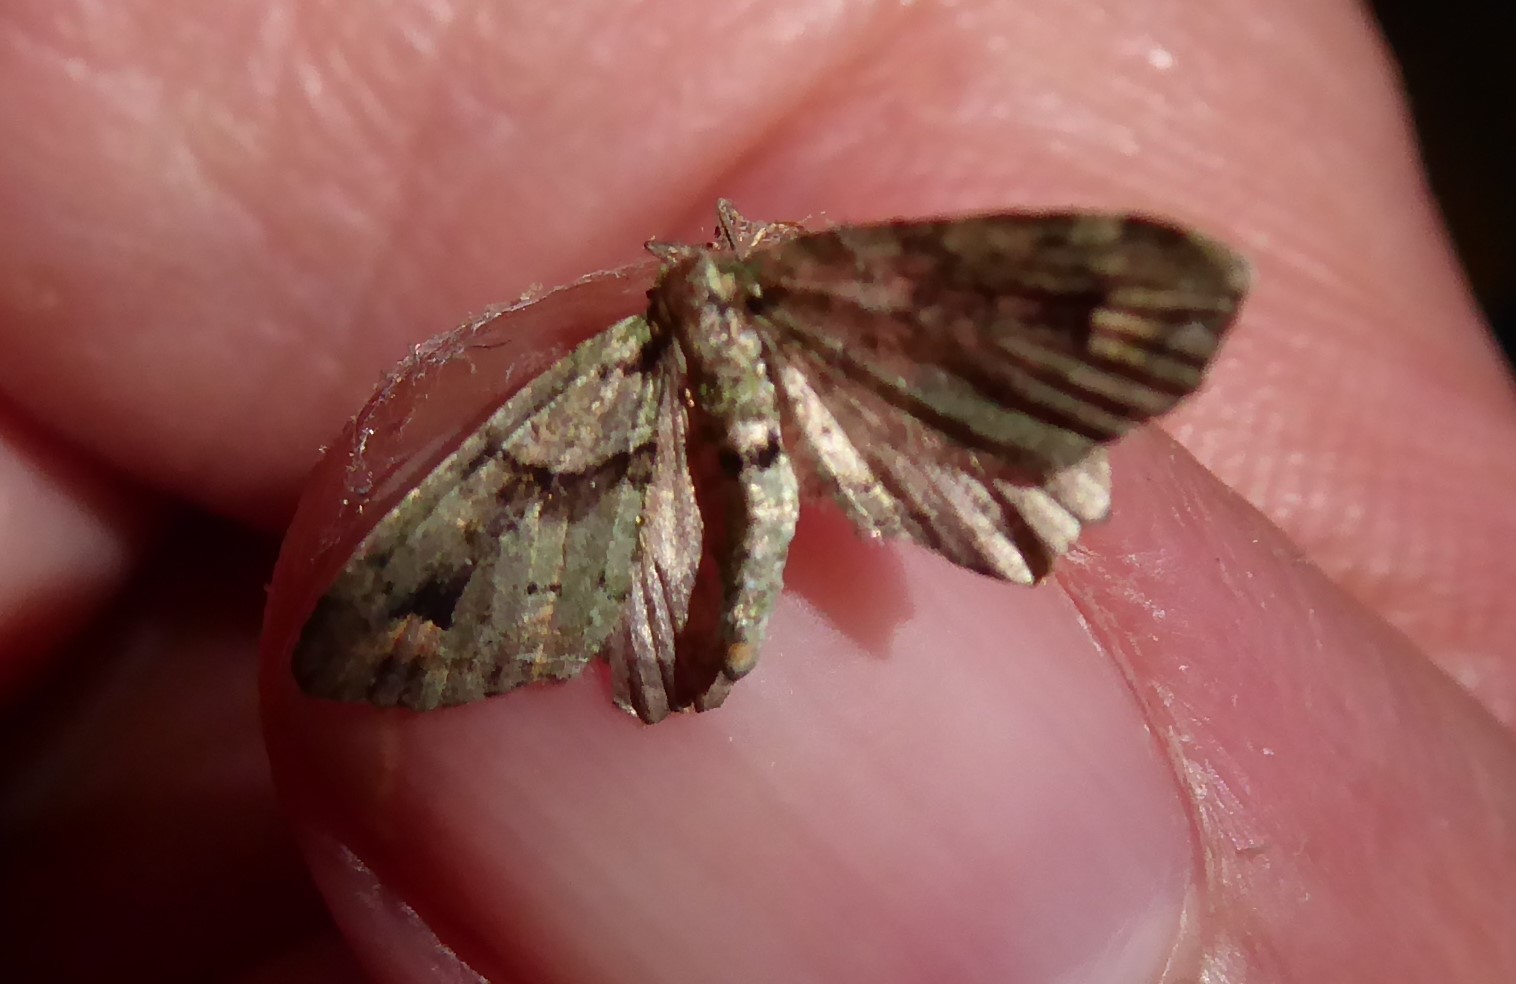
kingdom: Animalia
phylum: Arthropoda
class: Insecta
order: Lepidoptera
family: Geometridae
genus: Pasiphila
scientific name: Pasiphila suffusa
